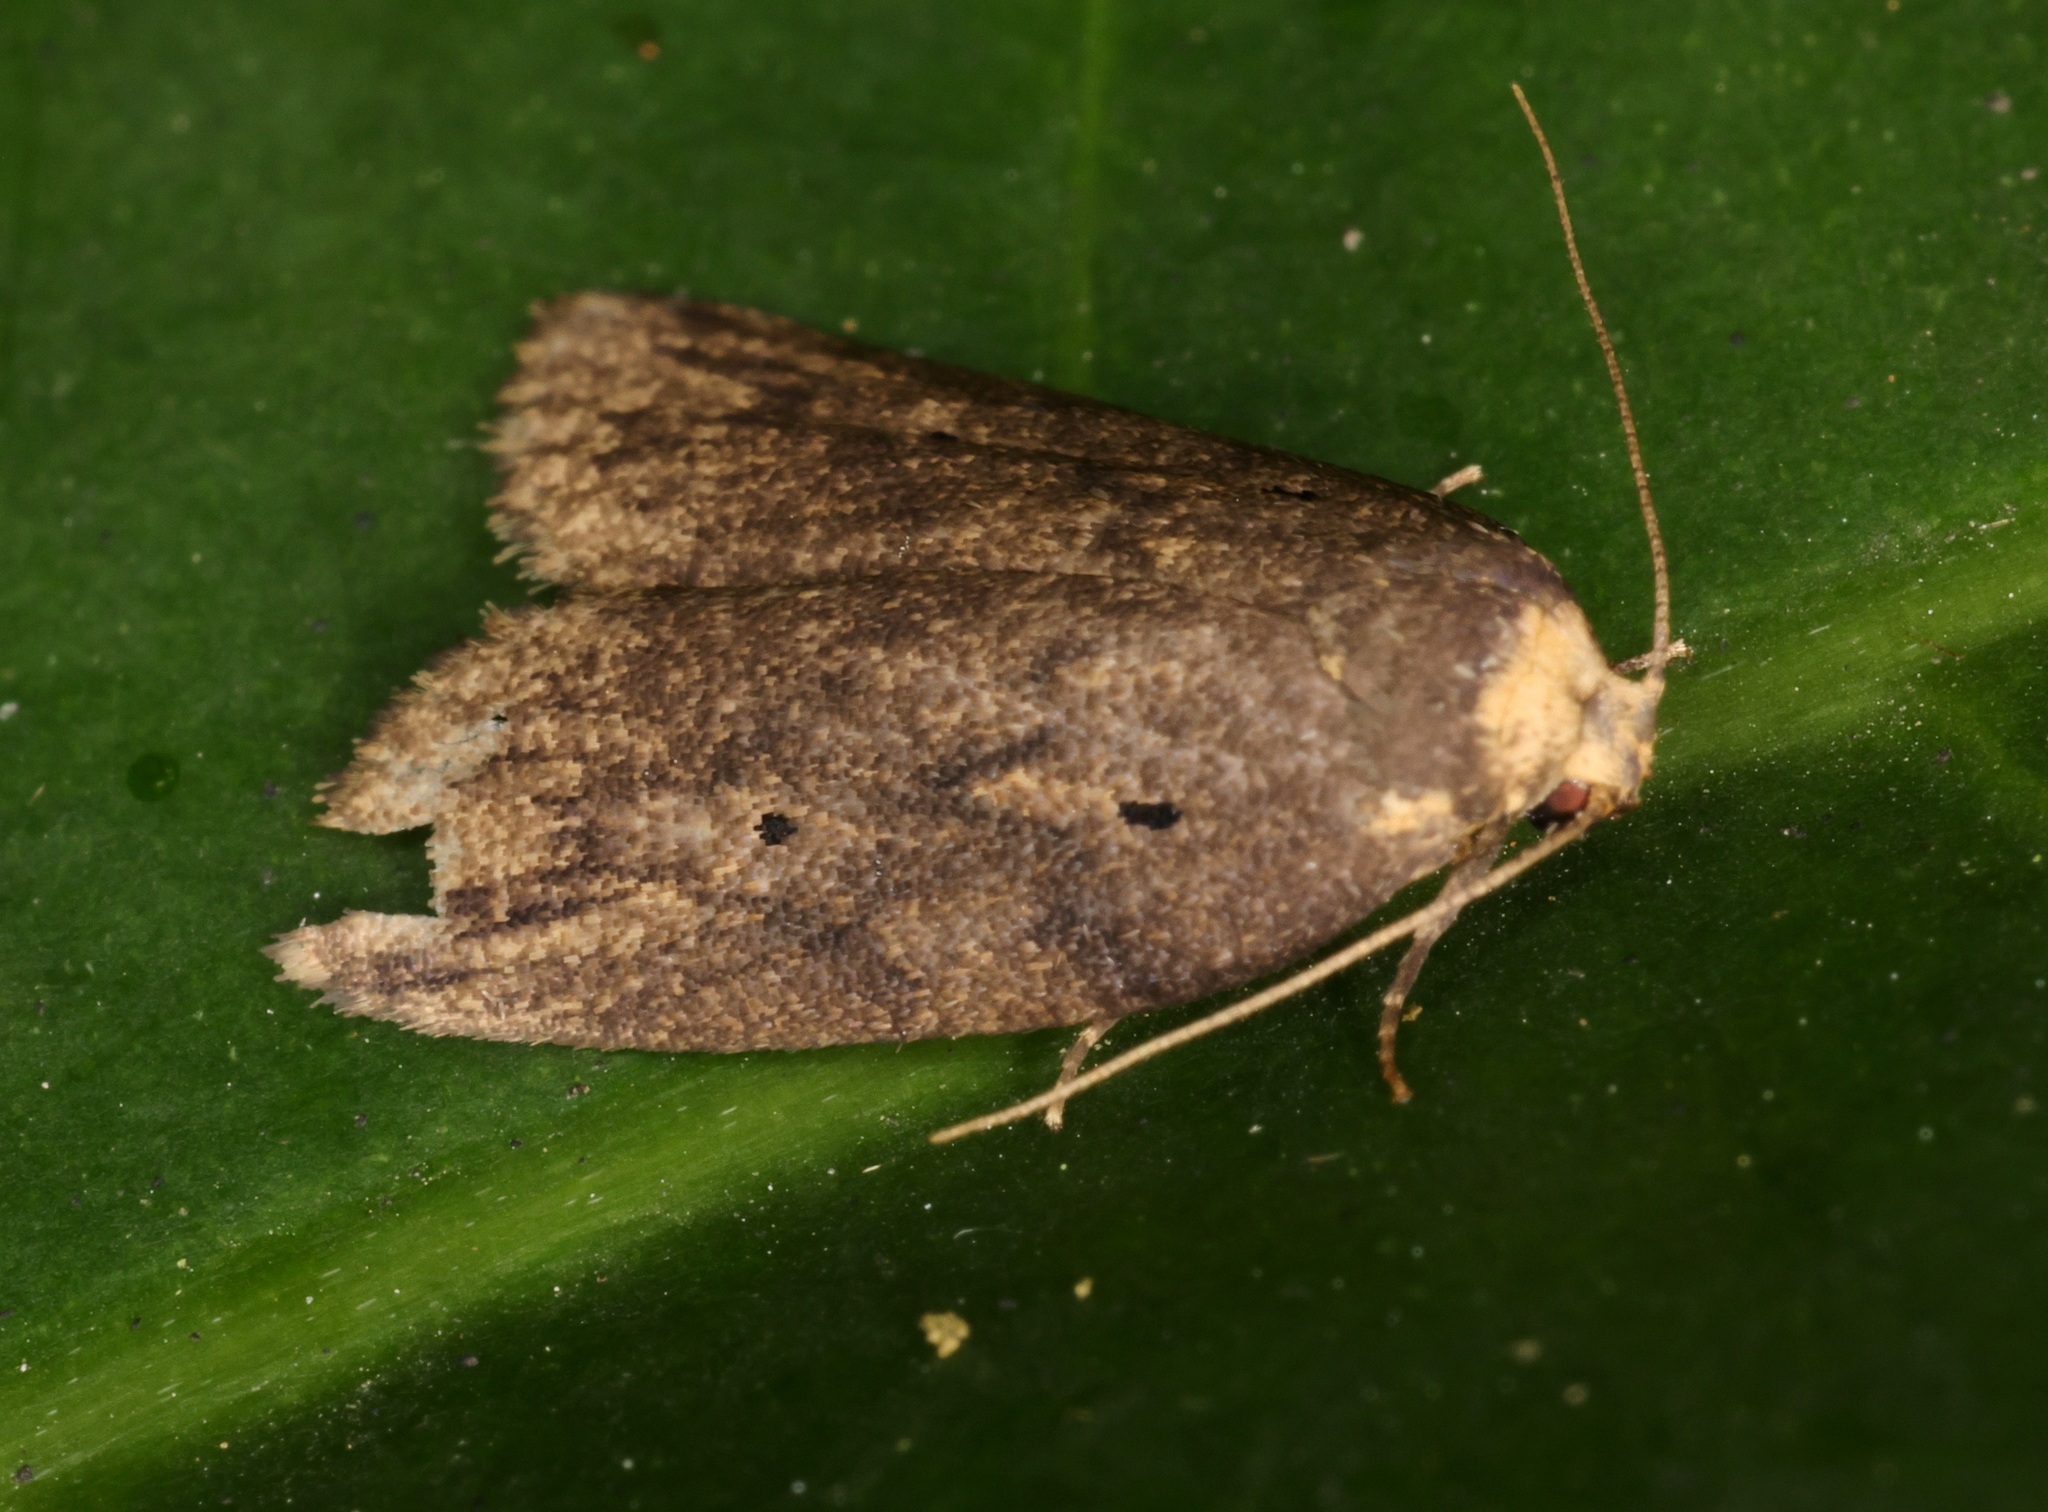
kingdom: Animalia
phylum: Arthropoda
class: Insecta
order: Lepidoptera
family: Erebidae
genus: Eugoa
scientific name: Eugoa brunnea
